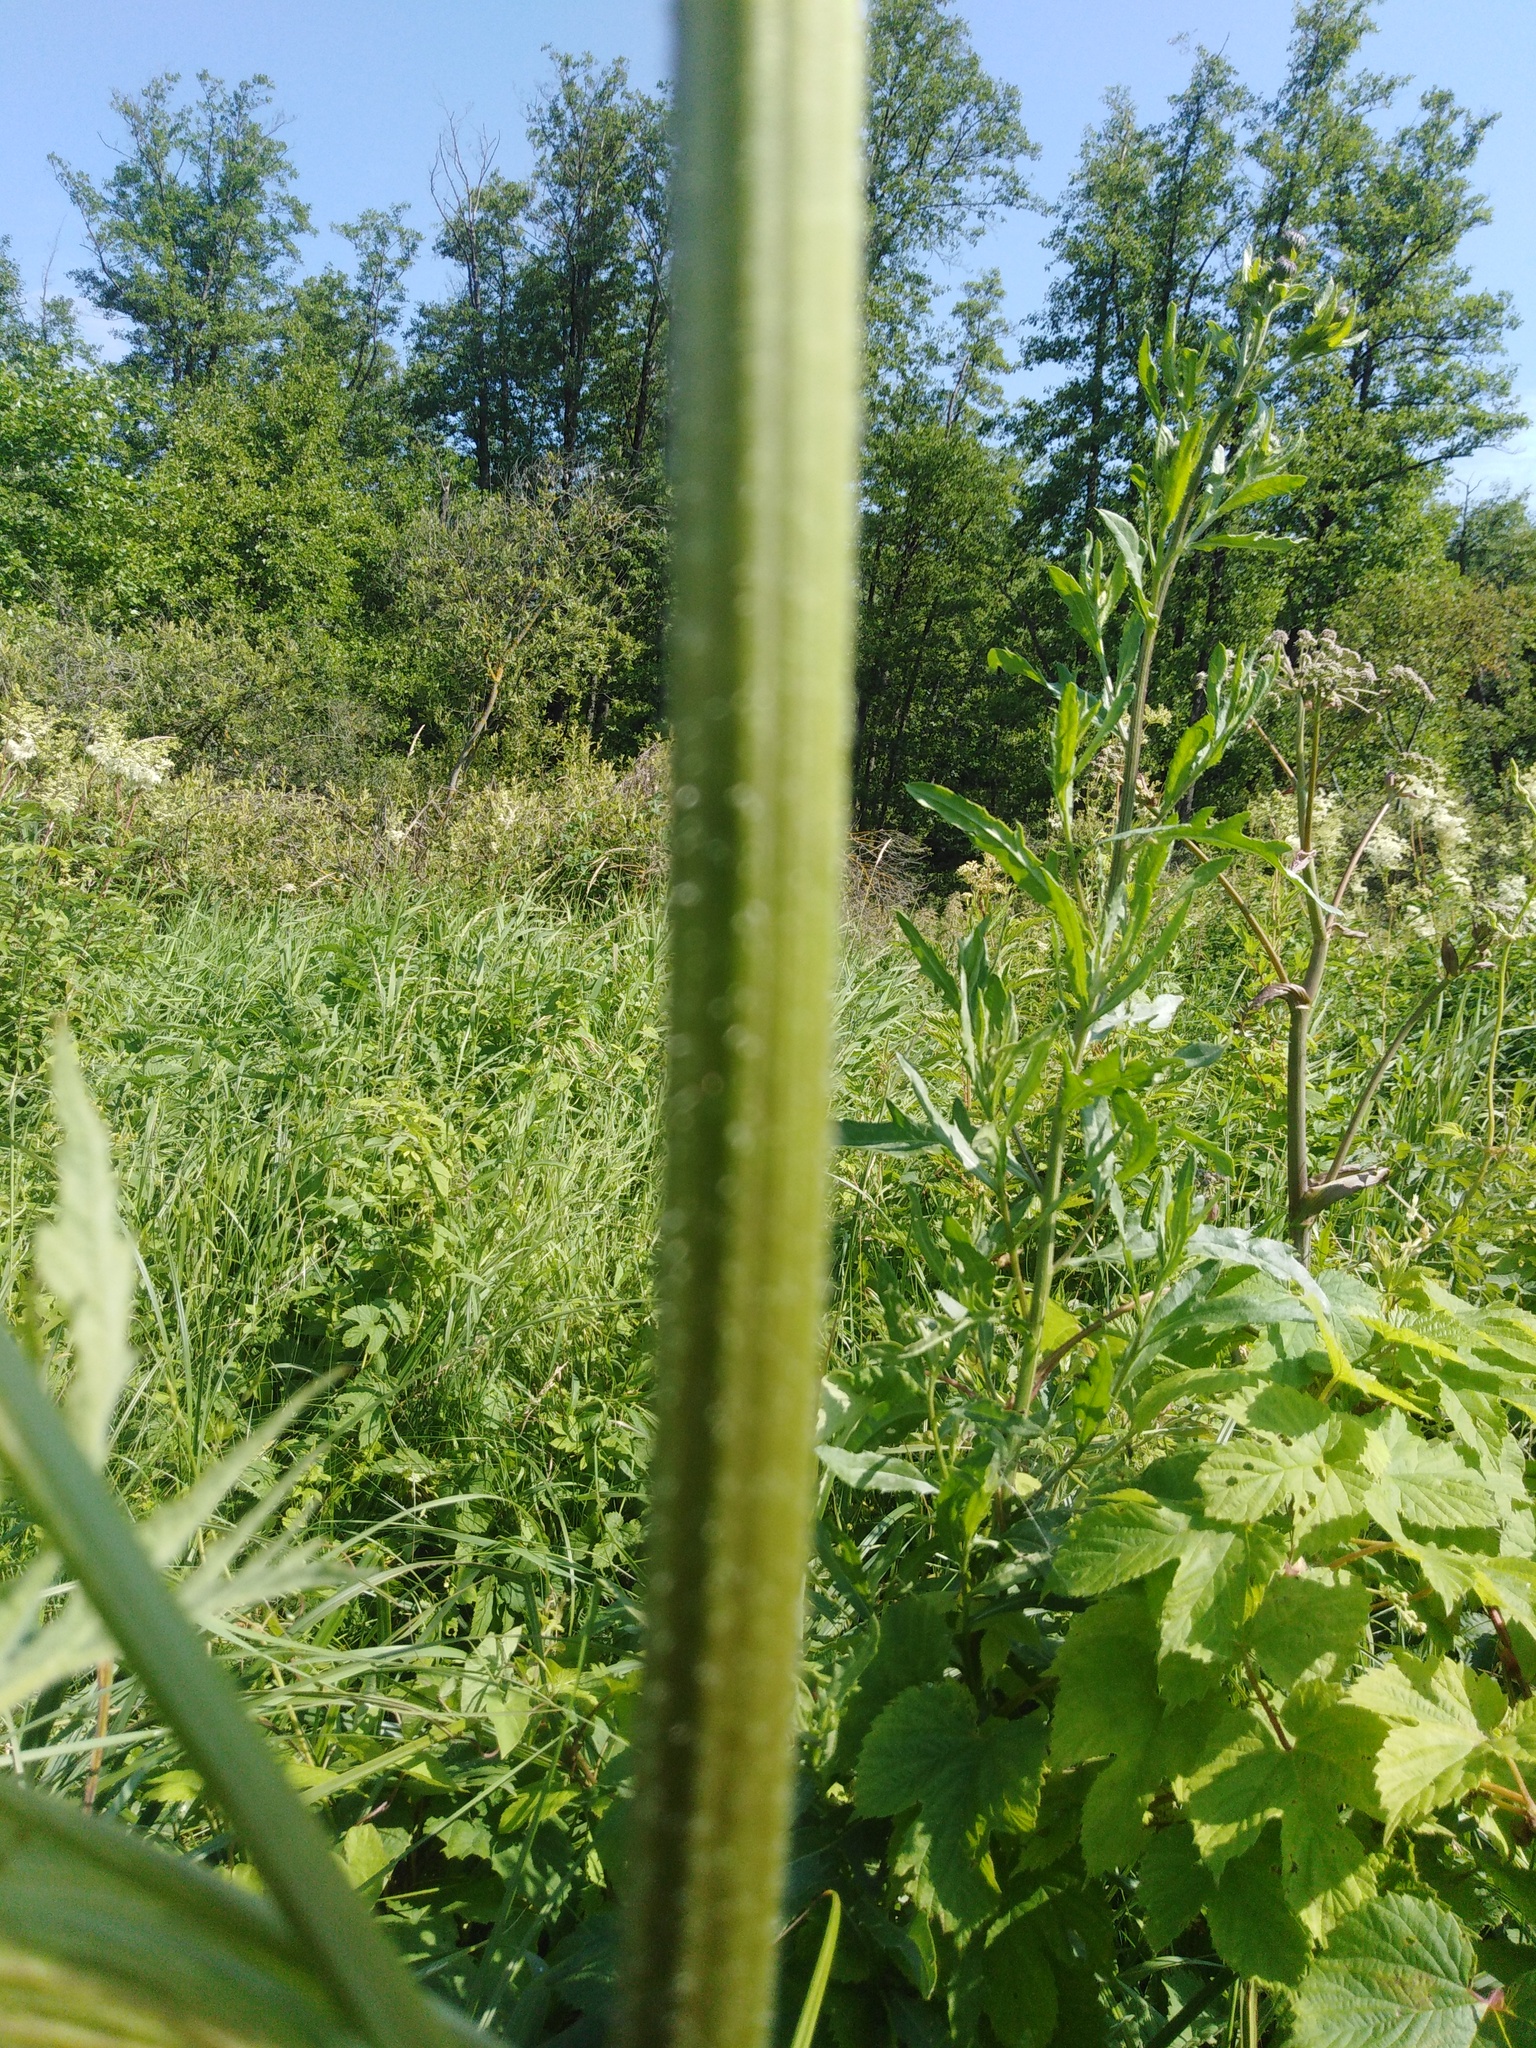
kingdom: Plantae
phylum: Tracheophyta
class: Magnoliopsida
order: Apiales
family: Apiaceae
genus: Heracleum
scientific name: Heracleum sphondylium
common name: Hogweed
